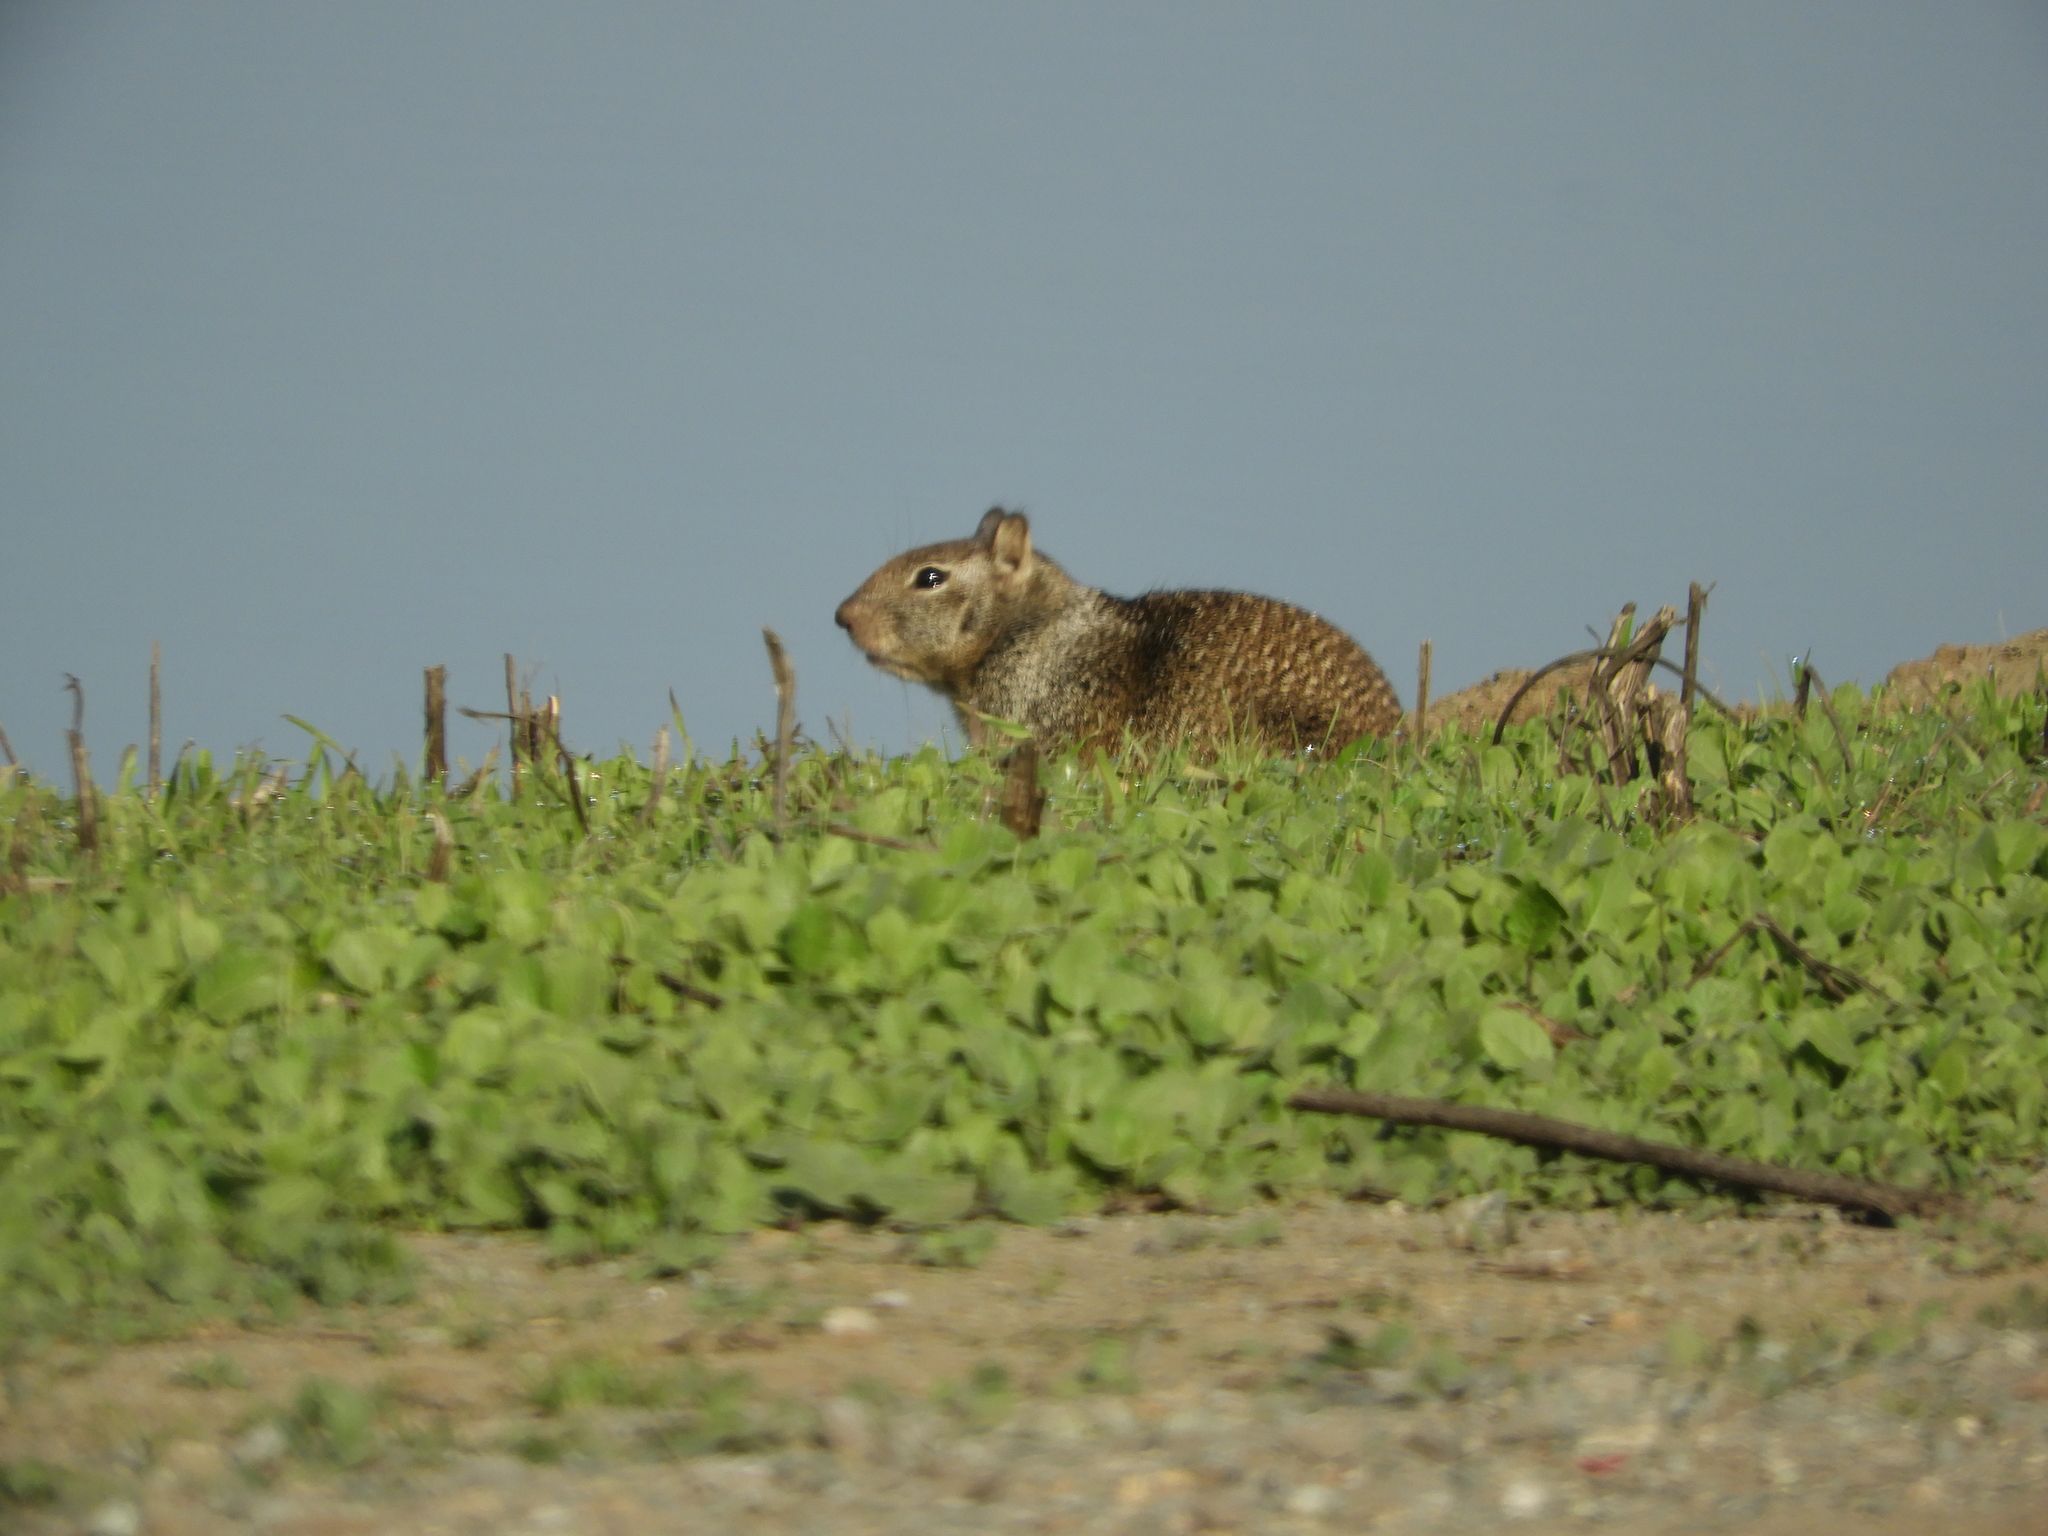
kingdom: Animalia
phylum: Chordata
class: Mammalia
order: Rodentia
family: Sciuridae
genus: Otospermophilus
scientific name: Otospermophilus beecheyi
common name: California ground squirrel
